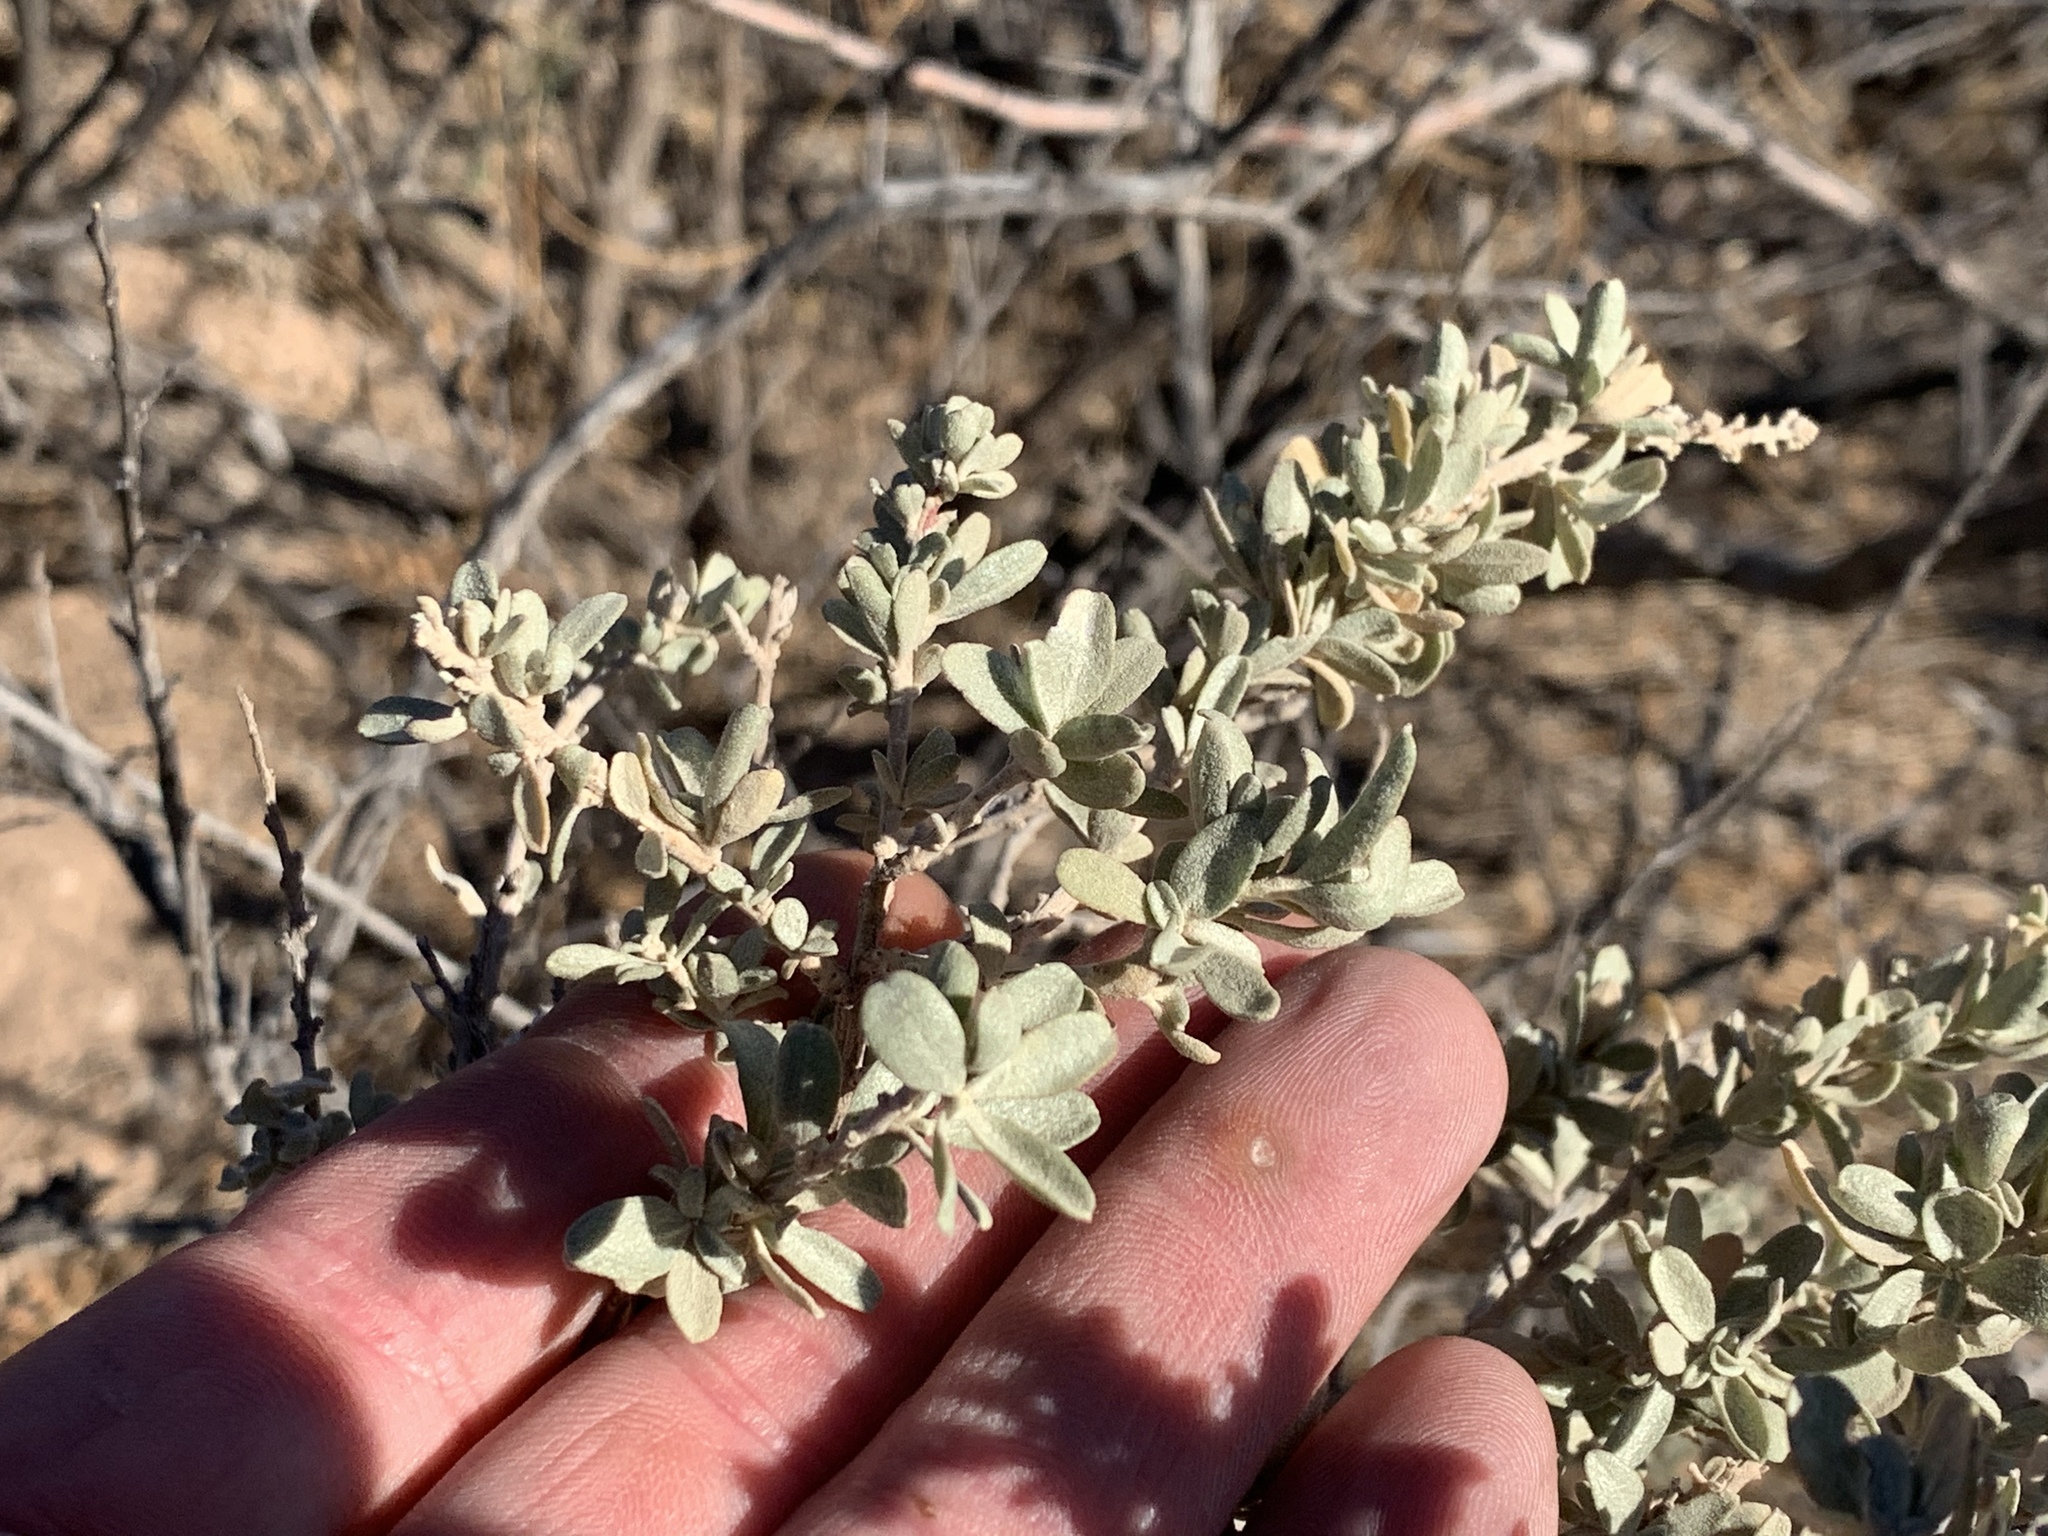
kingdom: Plantae
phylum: Tracheophyta
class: Magnoliopsida
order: Caryophyllales
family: Amaranthaceae
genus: Atriplex
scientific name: Atriplex canescens
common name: Four-wing saltbush
